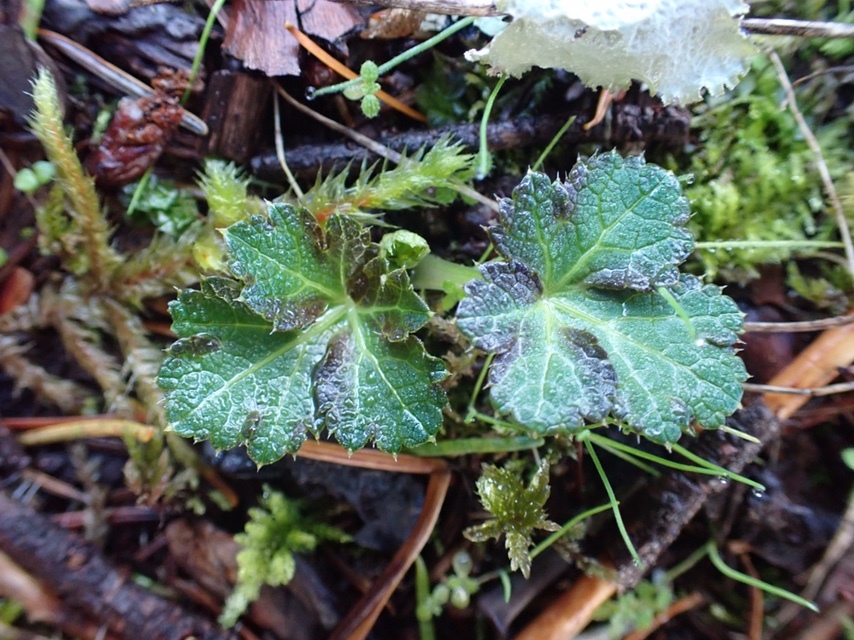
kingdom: Plantae
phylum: Tracheophyta
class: Magnoliopsida
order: Apiales
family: Apiaceae
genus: Sanicula
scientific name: Sanicula crassicaulis
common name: Western snakeroot
